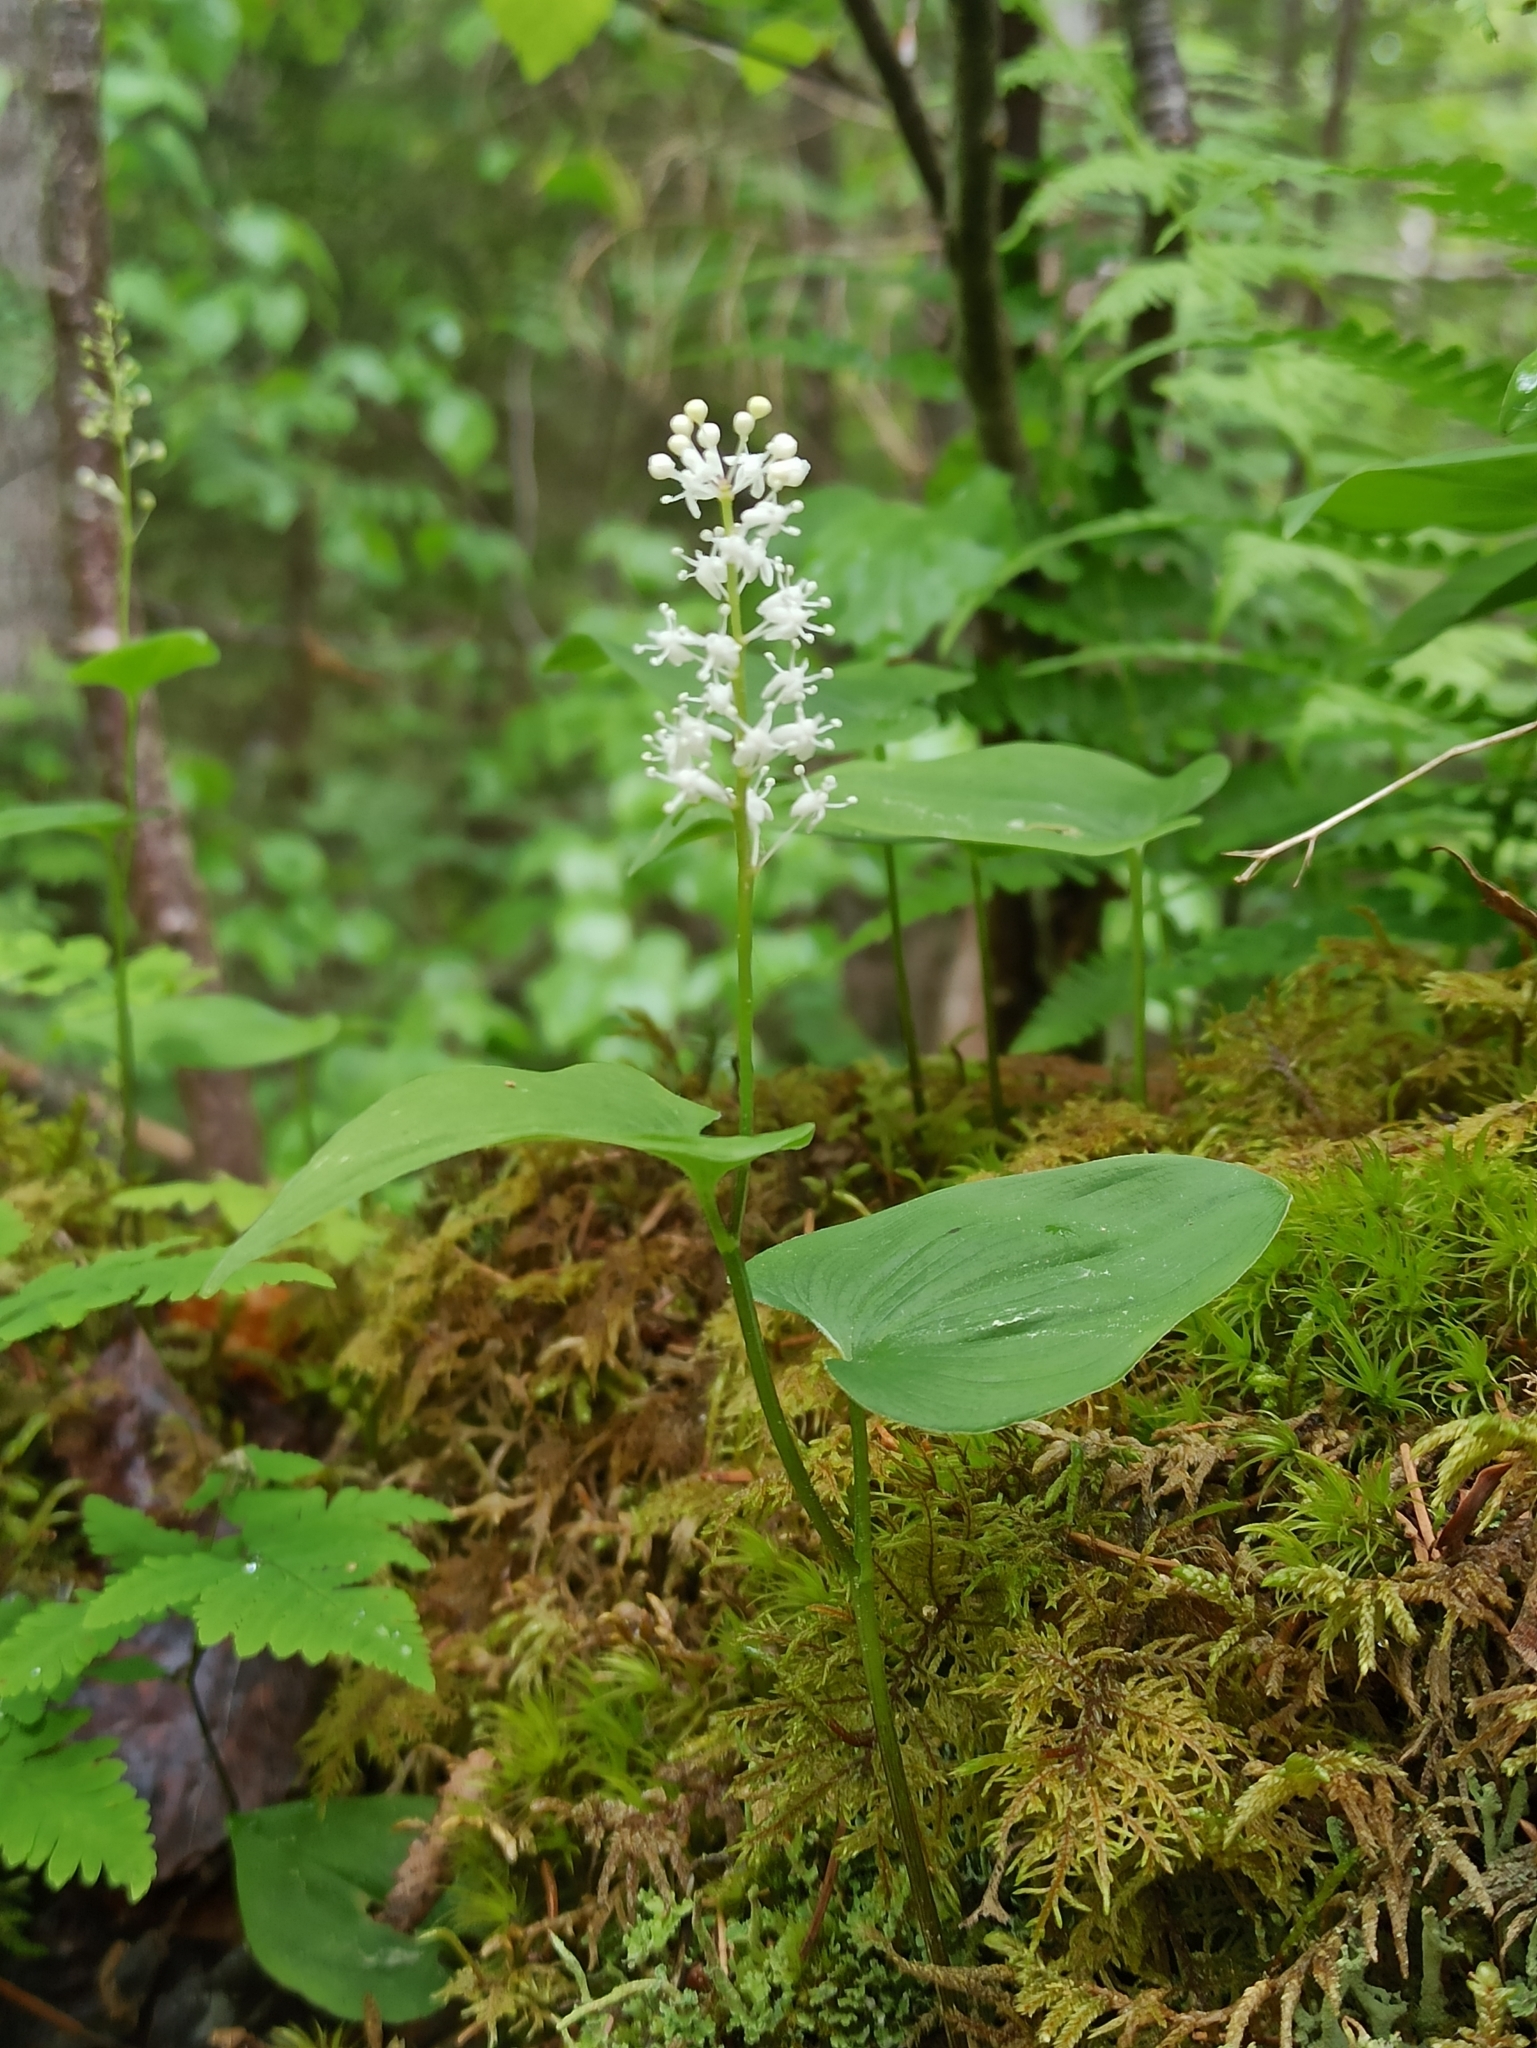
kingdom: Plantae
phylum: Tracheophyta
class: Liliopsida
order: Asparagales
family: Asparagaceae
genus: Maianthemum
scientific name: Maianthemum bifolium
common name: May lily
